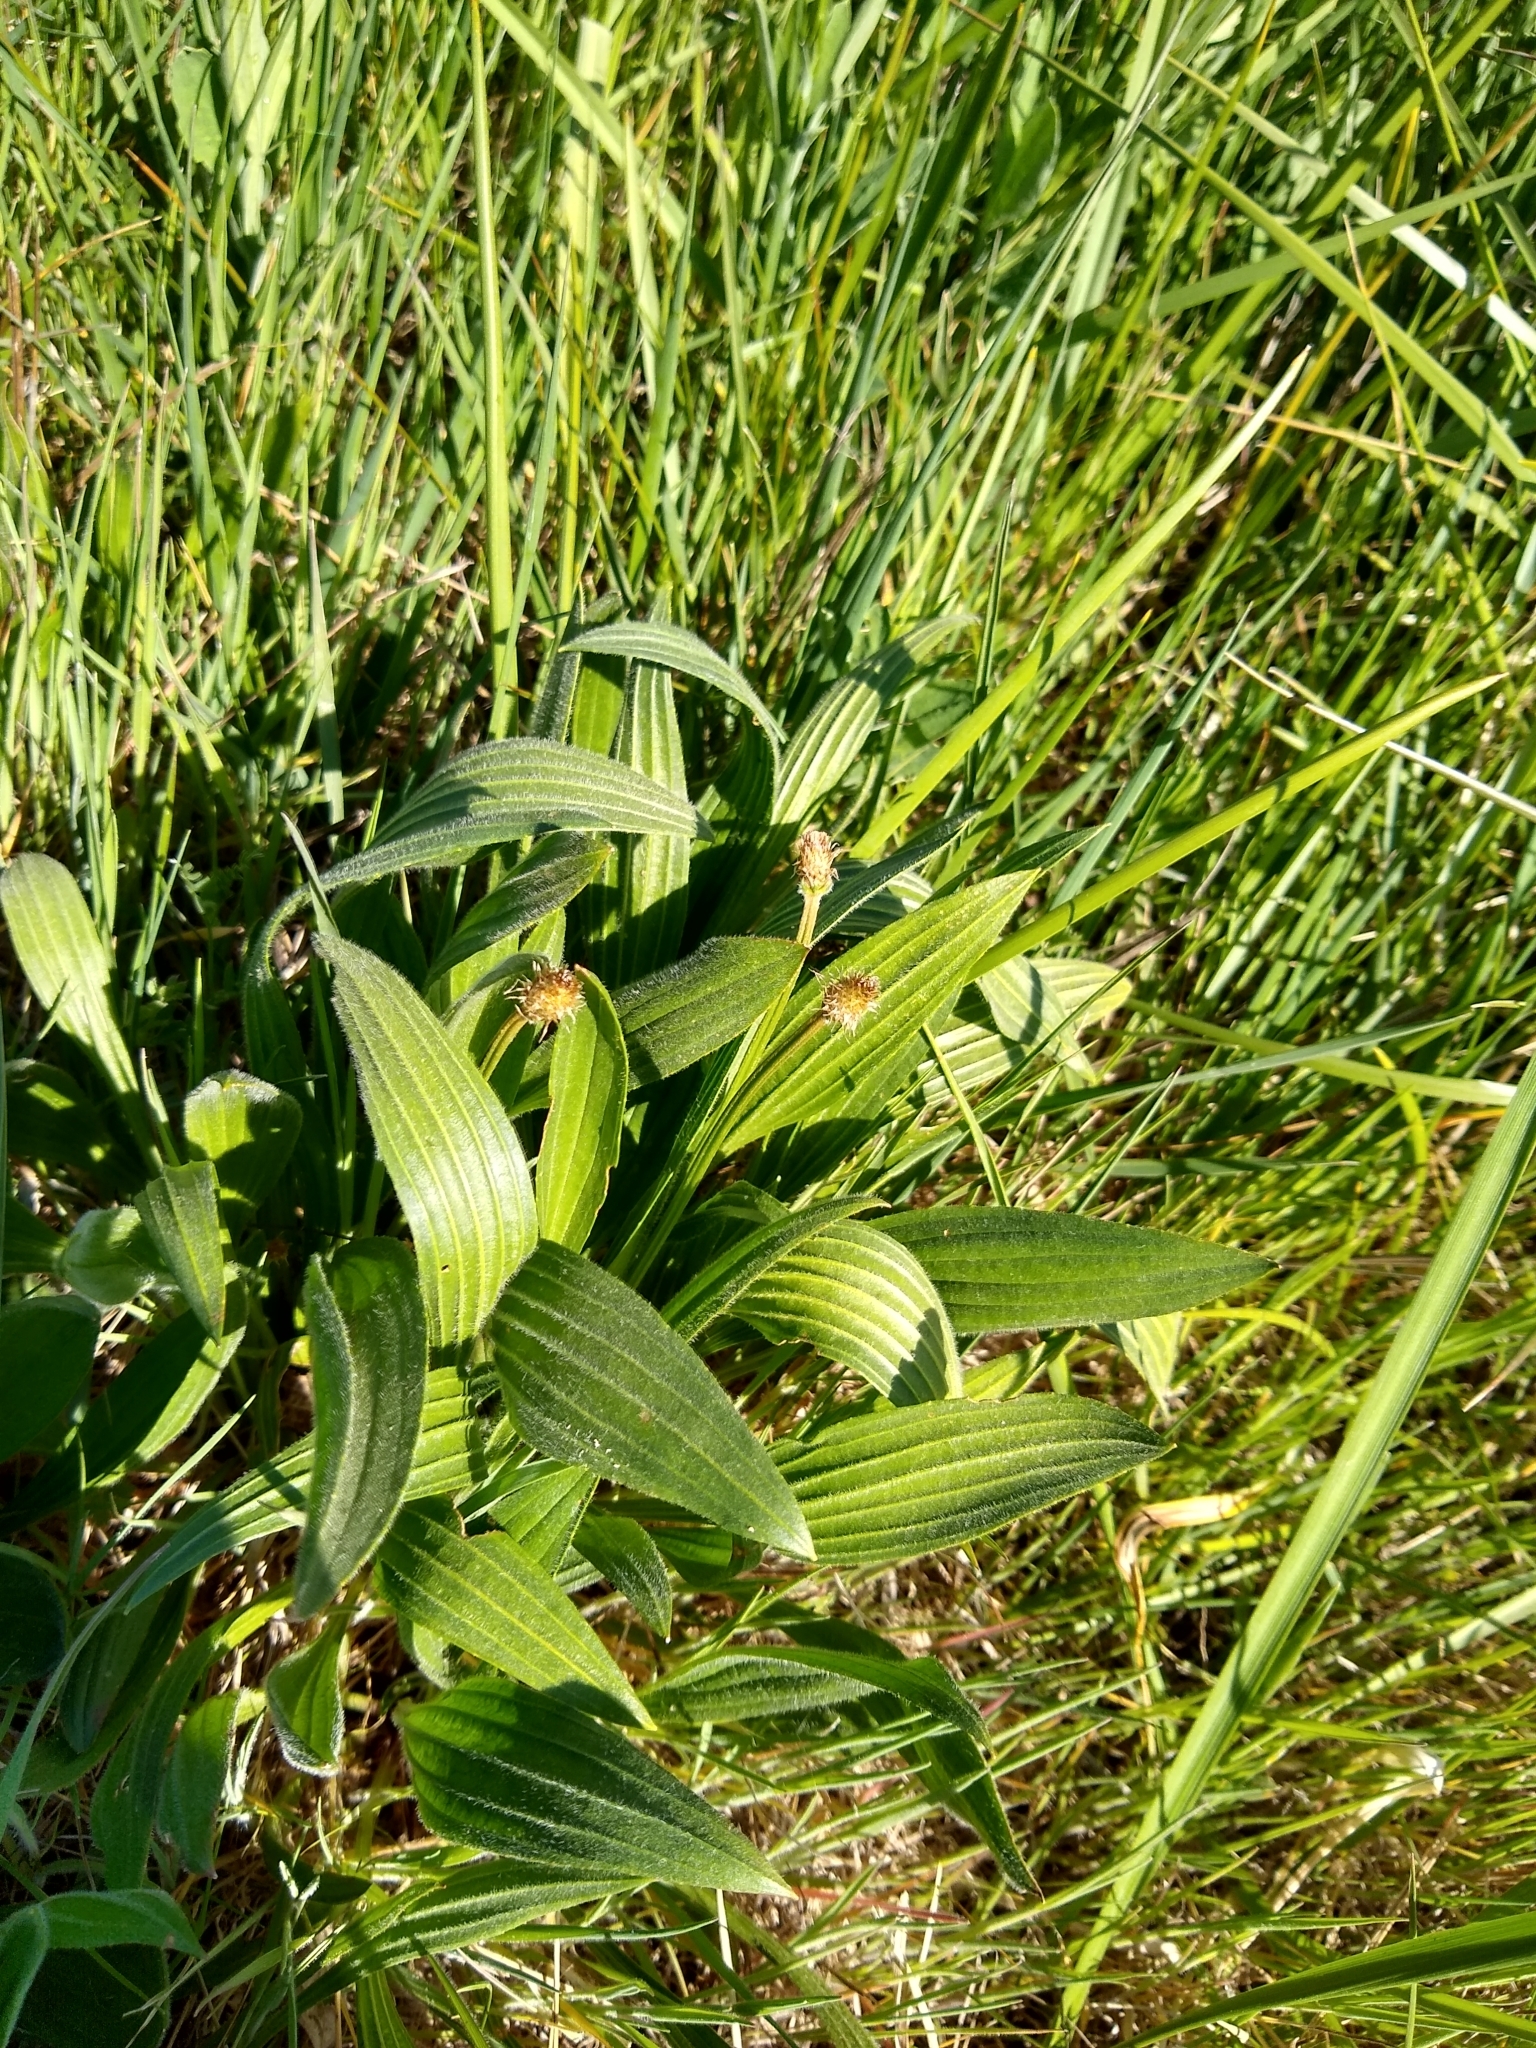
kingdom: Plantae
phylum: Tracheophyta
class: Magnoliopsida
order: Lamiales
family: Plantaginaceae
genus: Plantago
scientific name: Plantago lanceolata
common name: Ribwort plantain
